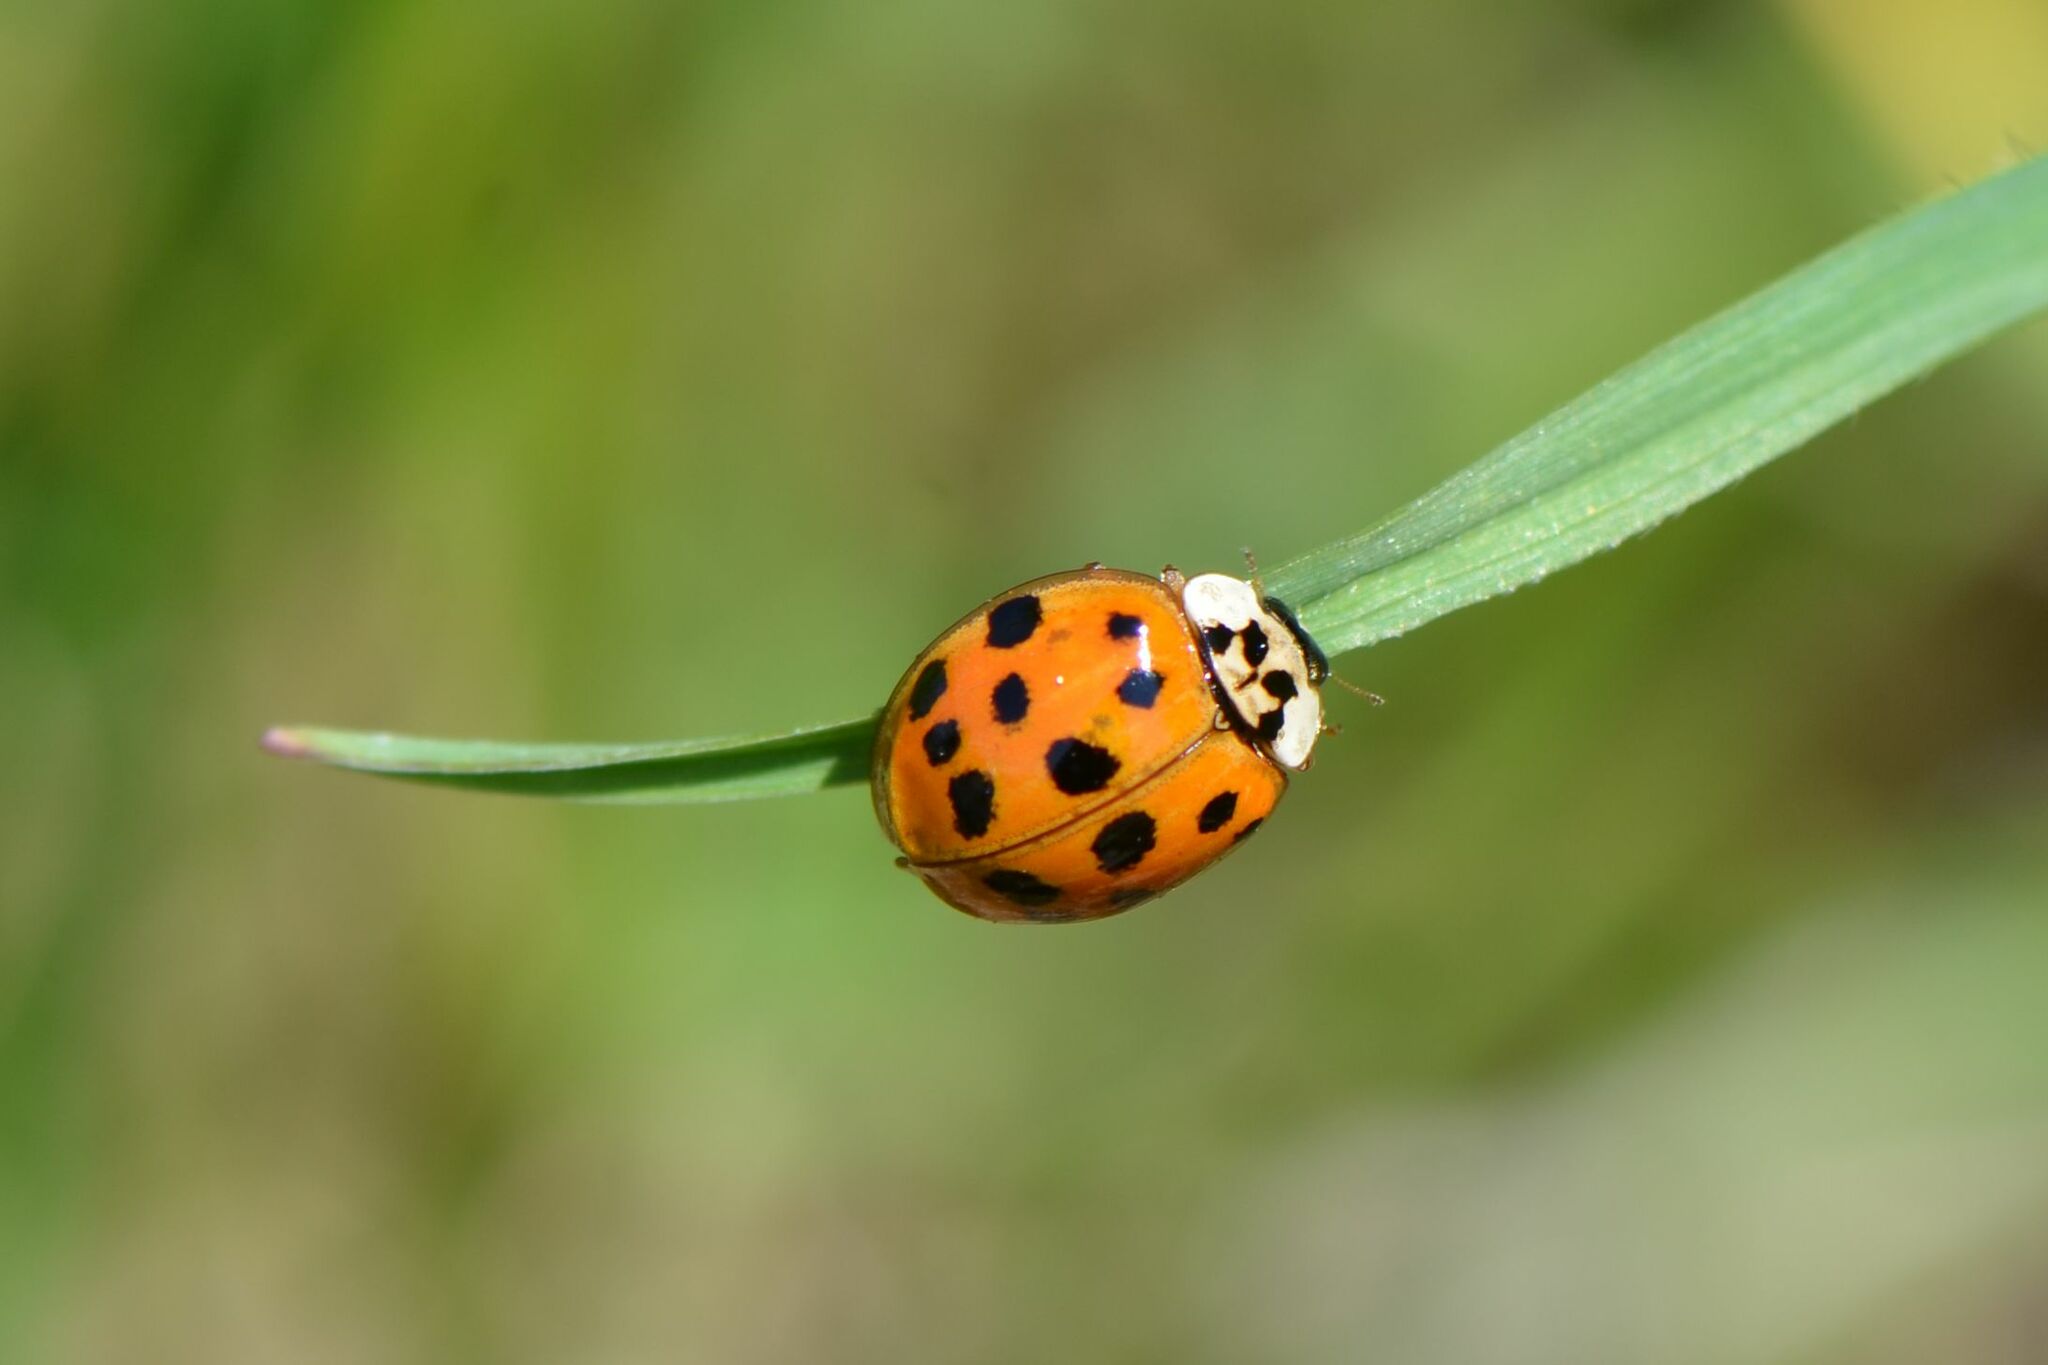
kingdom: Animalia
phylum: Arthropoda
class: Insecta
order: Coleoptera
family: Coccinellidae
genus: Harmonia
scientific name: Harmonia axyridis
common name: Harlequin ladybird
